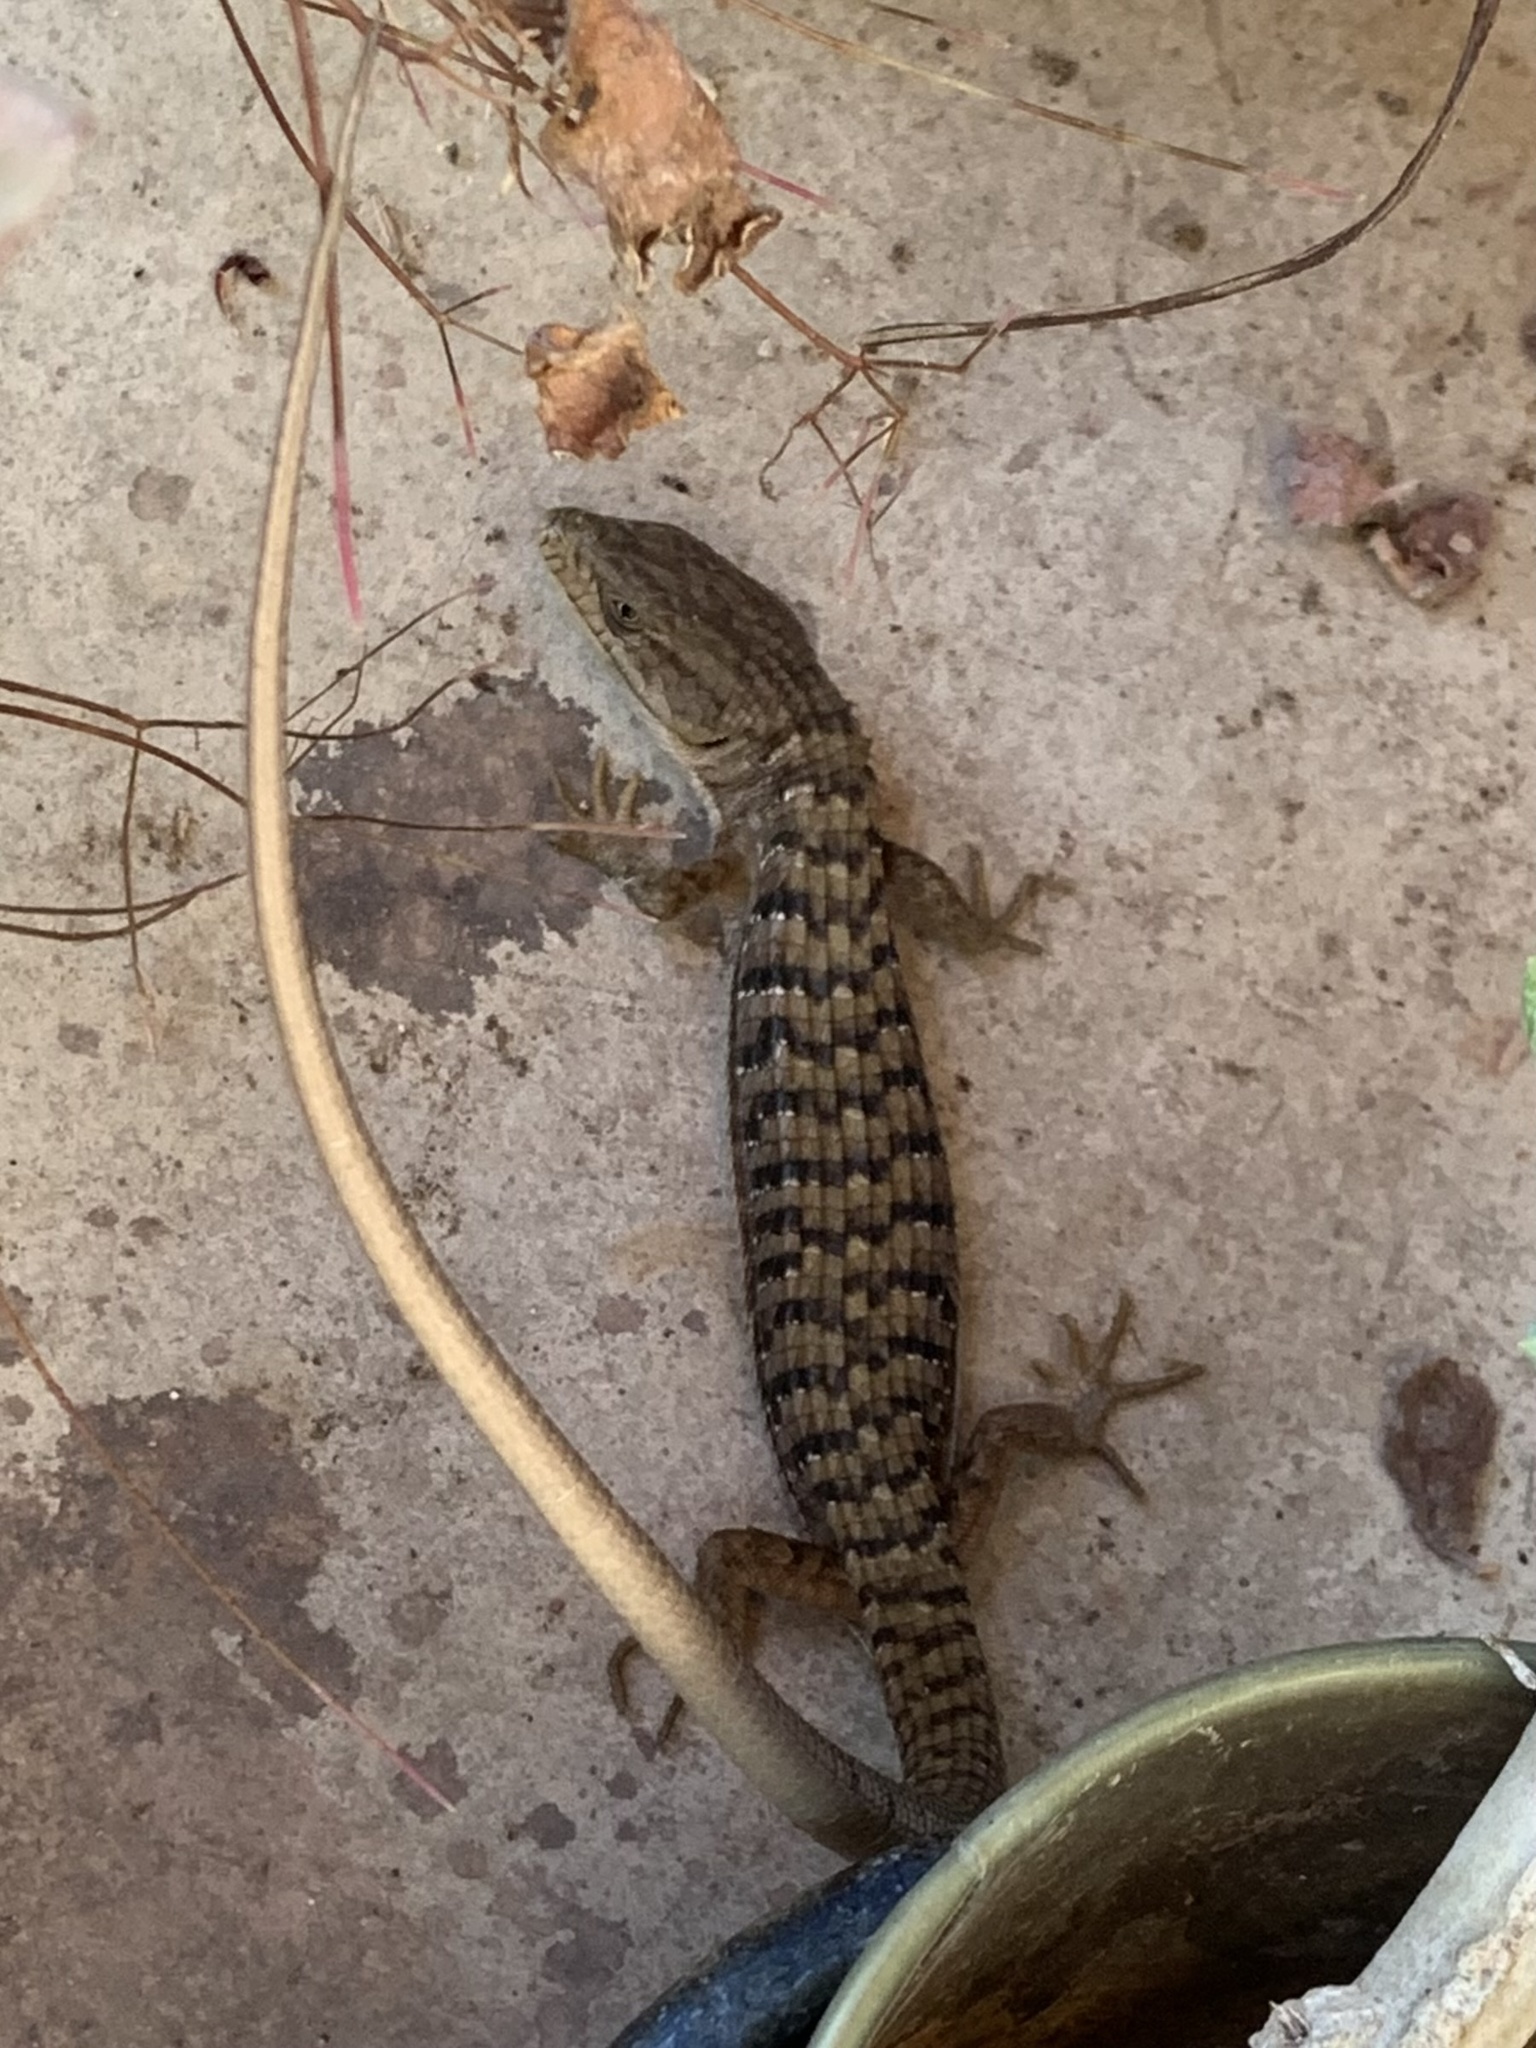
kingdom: Animalia
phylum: Chordata
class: Squamata
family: Anguidae
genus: Elgaria
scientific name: Elgaria multicarinata
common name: Southern alligator lizard
